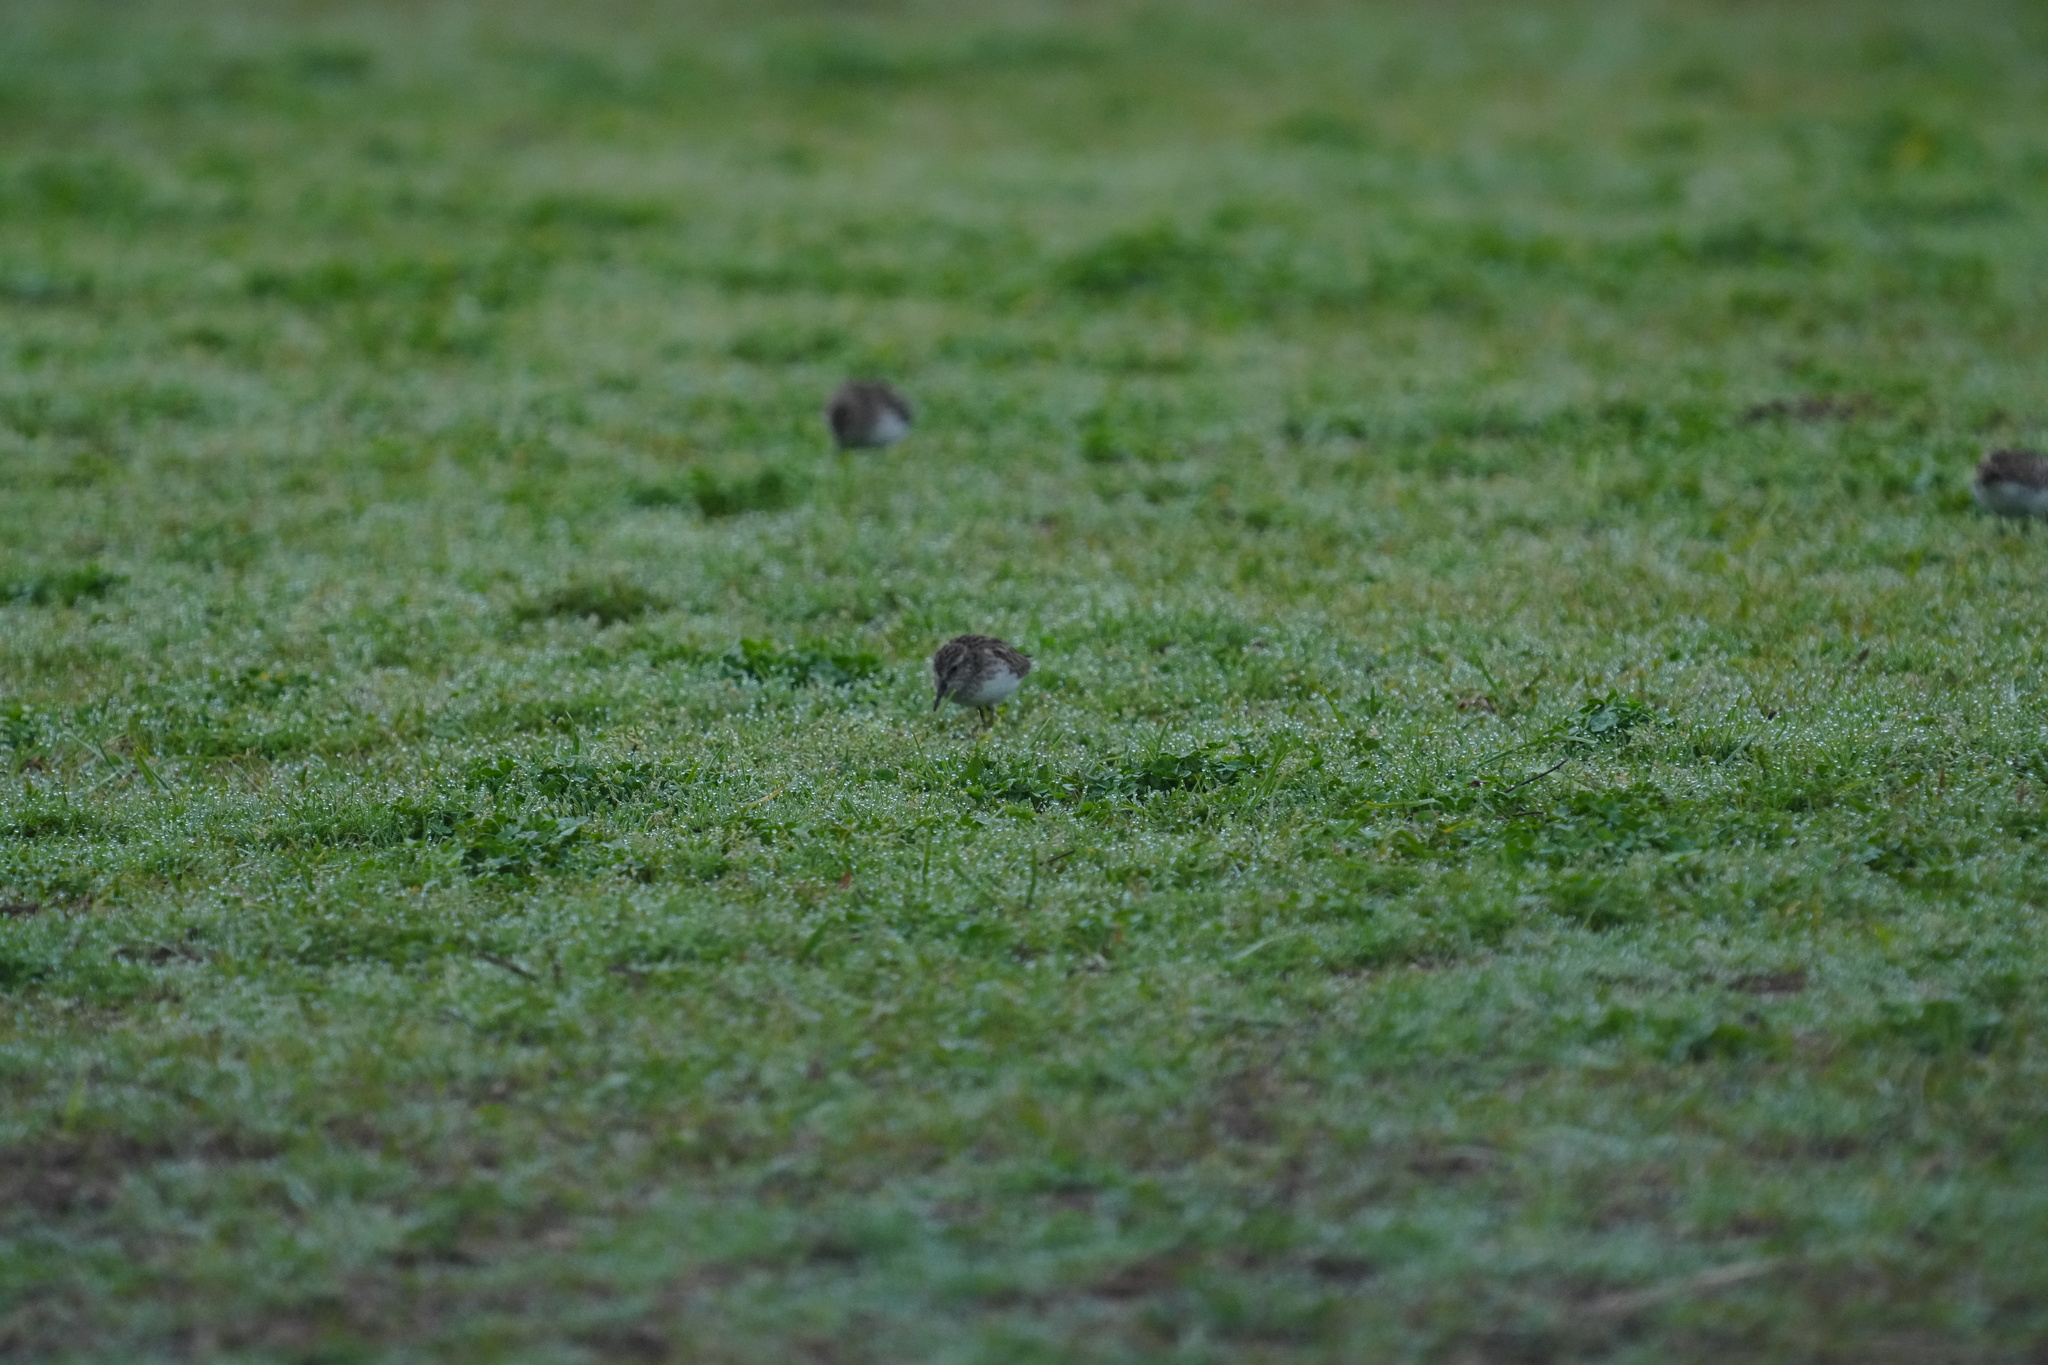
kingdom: Animalia
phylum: Chordata
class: Aves
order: Charadriiformes
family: Scolopacidae
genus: Calidris
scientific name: Calidris minutilla
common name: Least sandpiper
